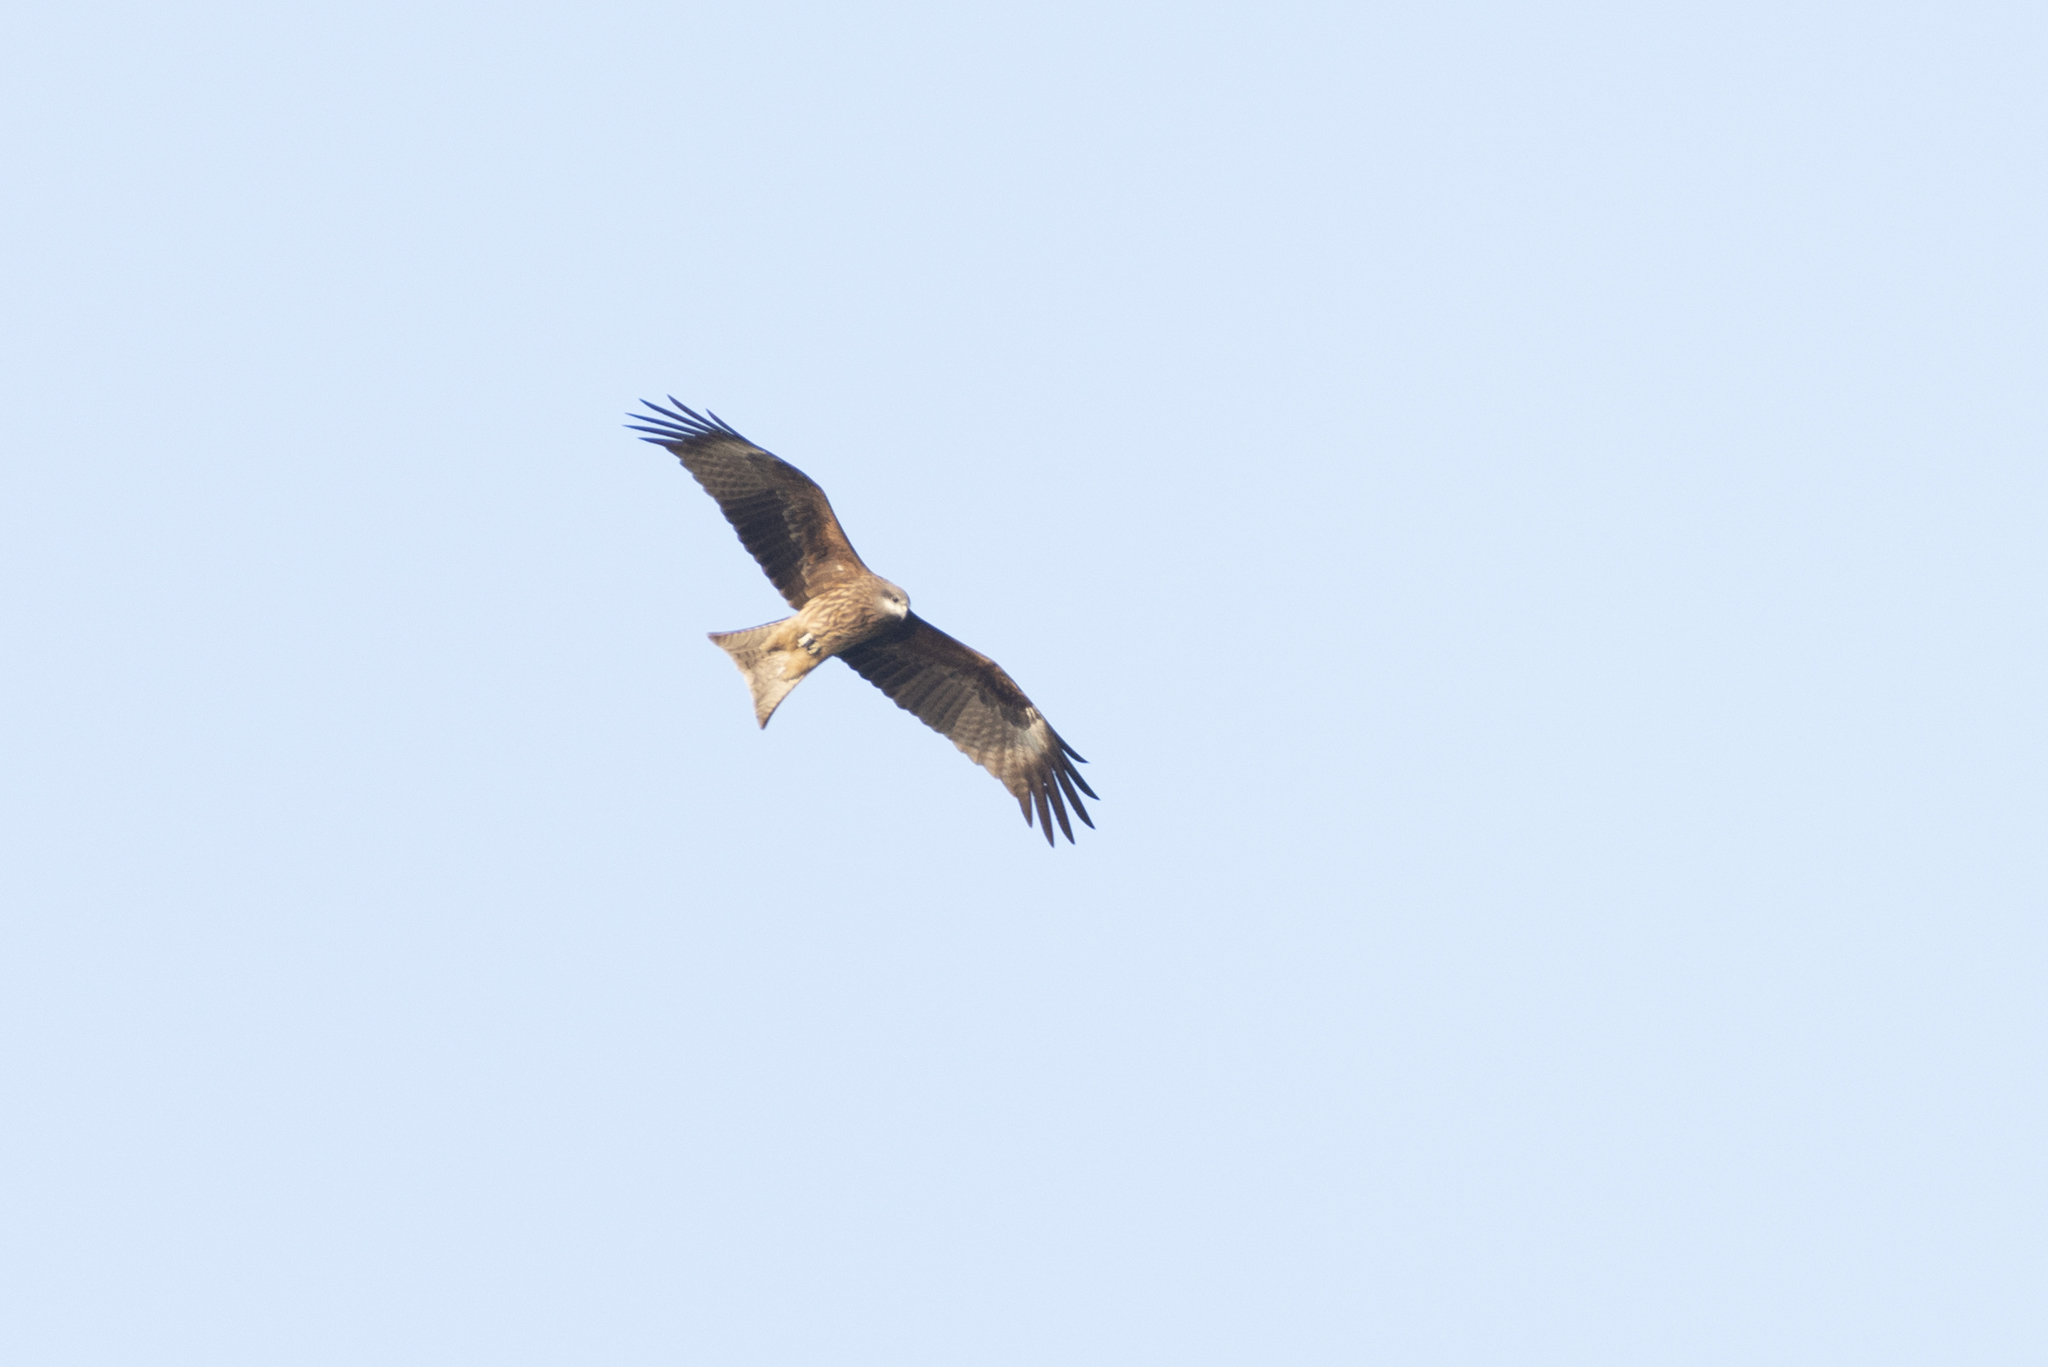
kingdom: Animalia
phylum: Chordata
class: Aves
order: Accipitriformes
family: Accipitridae
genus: Milvus
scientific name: Milvus migrans
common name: Black kite
